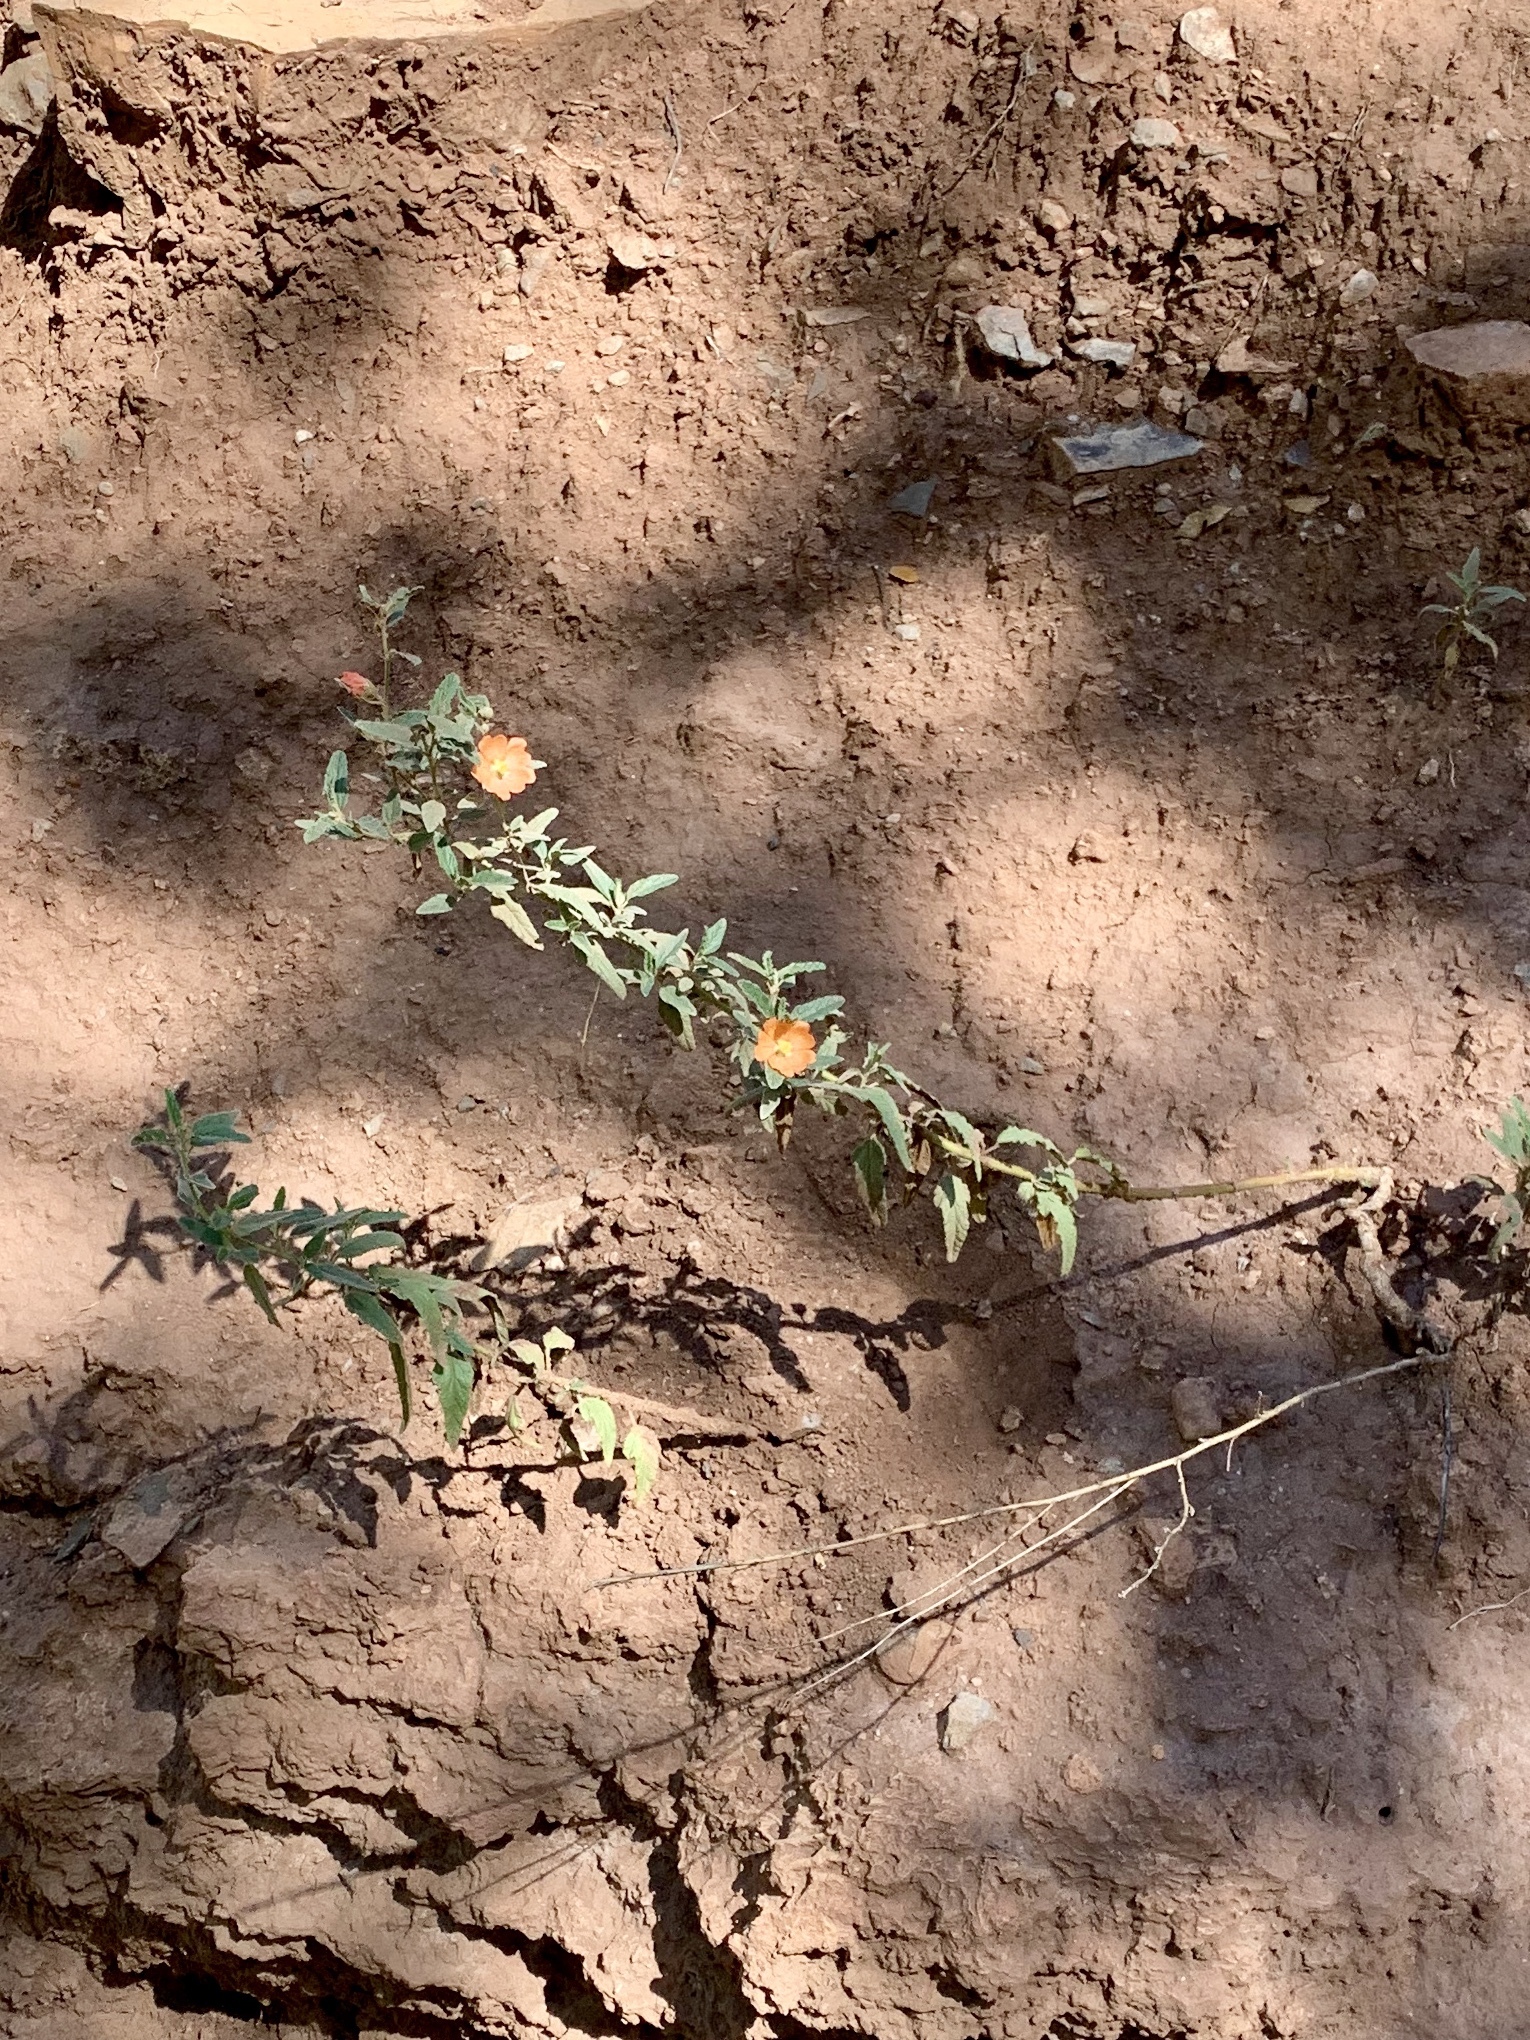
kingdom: Plantae
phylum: Tracheophyta
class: Magnoliopsida
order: Malvales
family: Malvaceae
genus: Sphaeralcea
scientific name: Sphaeralcea angustifolia
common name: Copper globe-mallow
